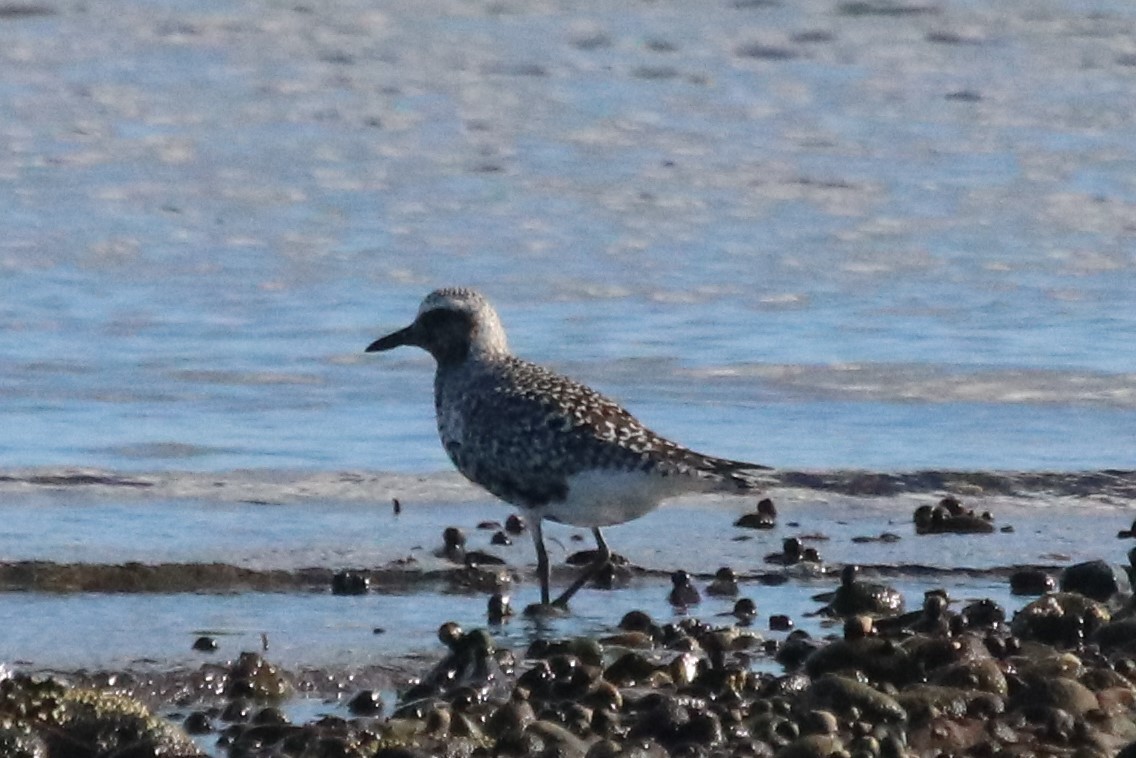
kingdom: Animalia
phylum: Chordata
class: Aves
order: Charadriiformes
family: Charadriidae
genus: Pluvialis
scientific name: Pluvialis squatarola
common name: Grey plover
